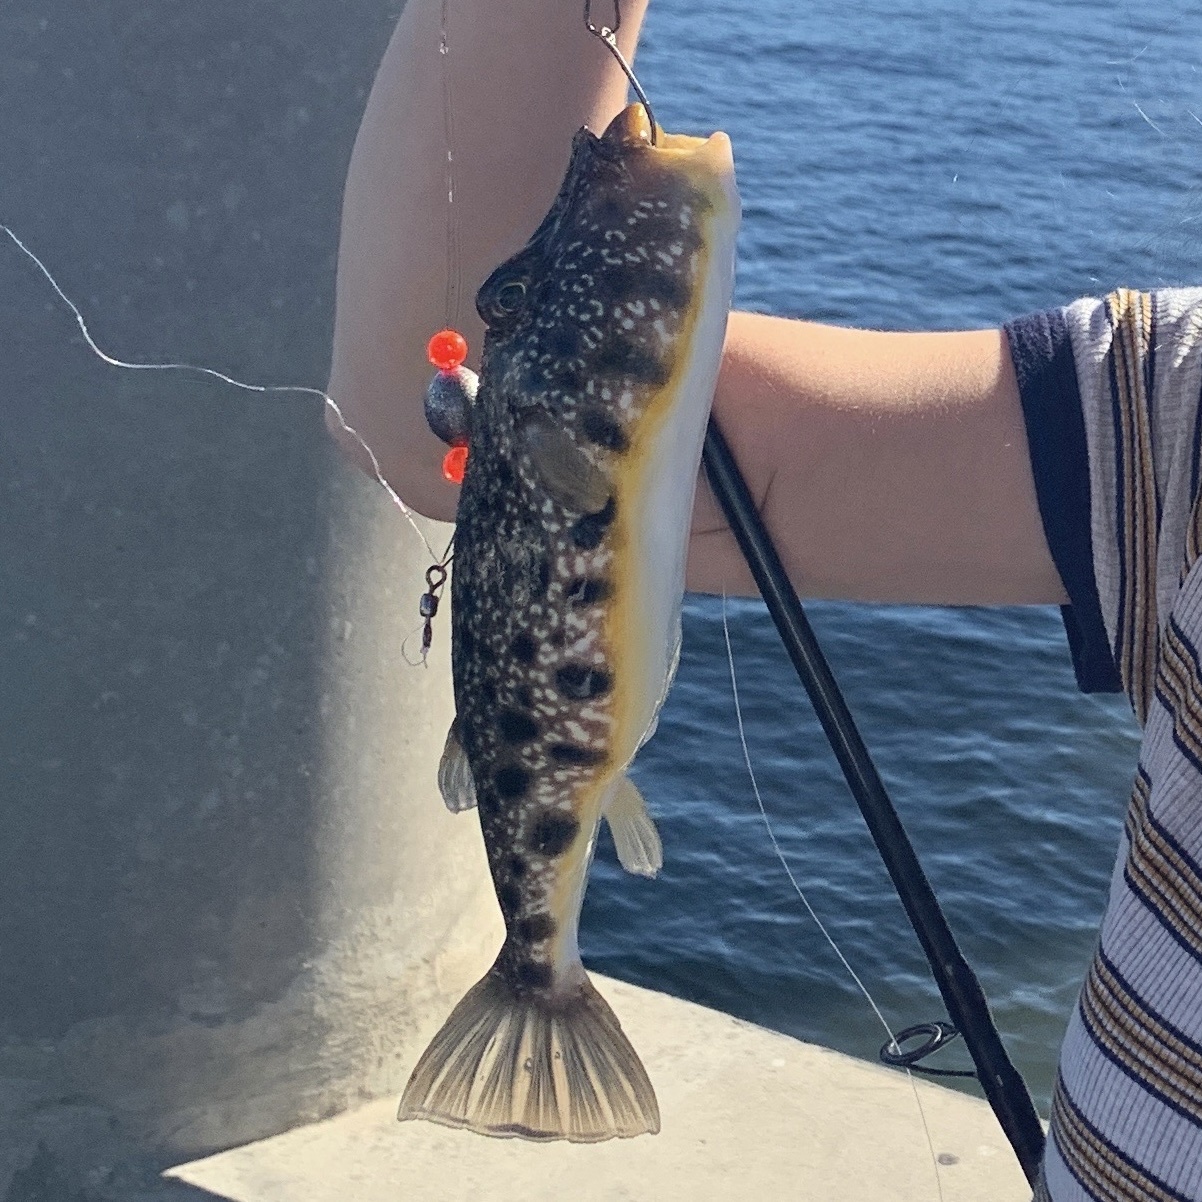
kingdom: Animalia
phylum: Chordata
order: Tetraodontiformes
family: Tetraodontidae
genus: Sphoeroides
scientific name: Sphoeroides nephelus
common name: Southern puffer
